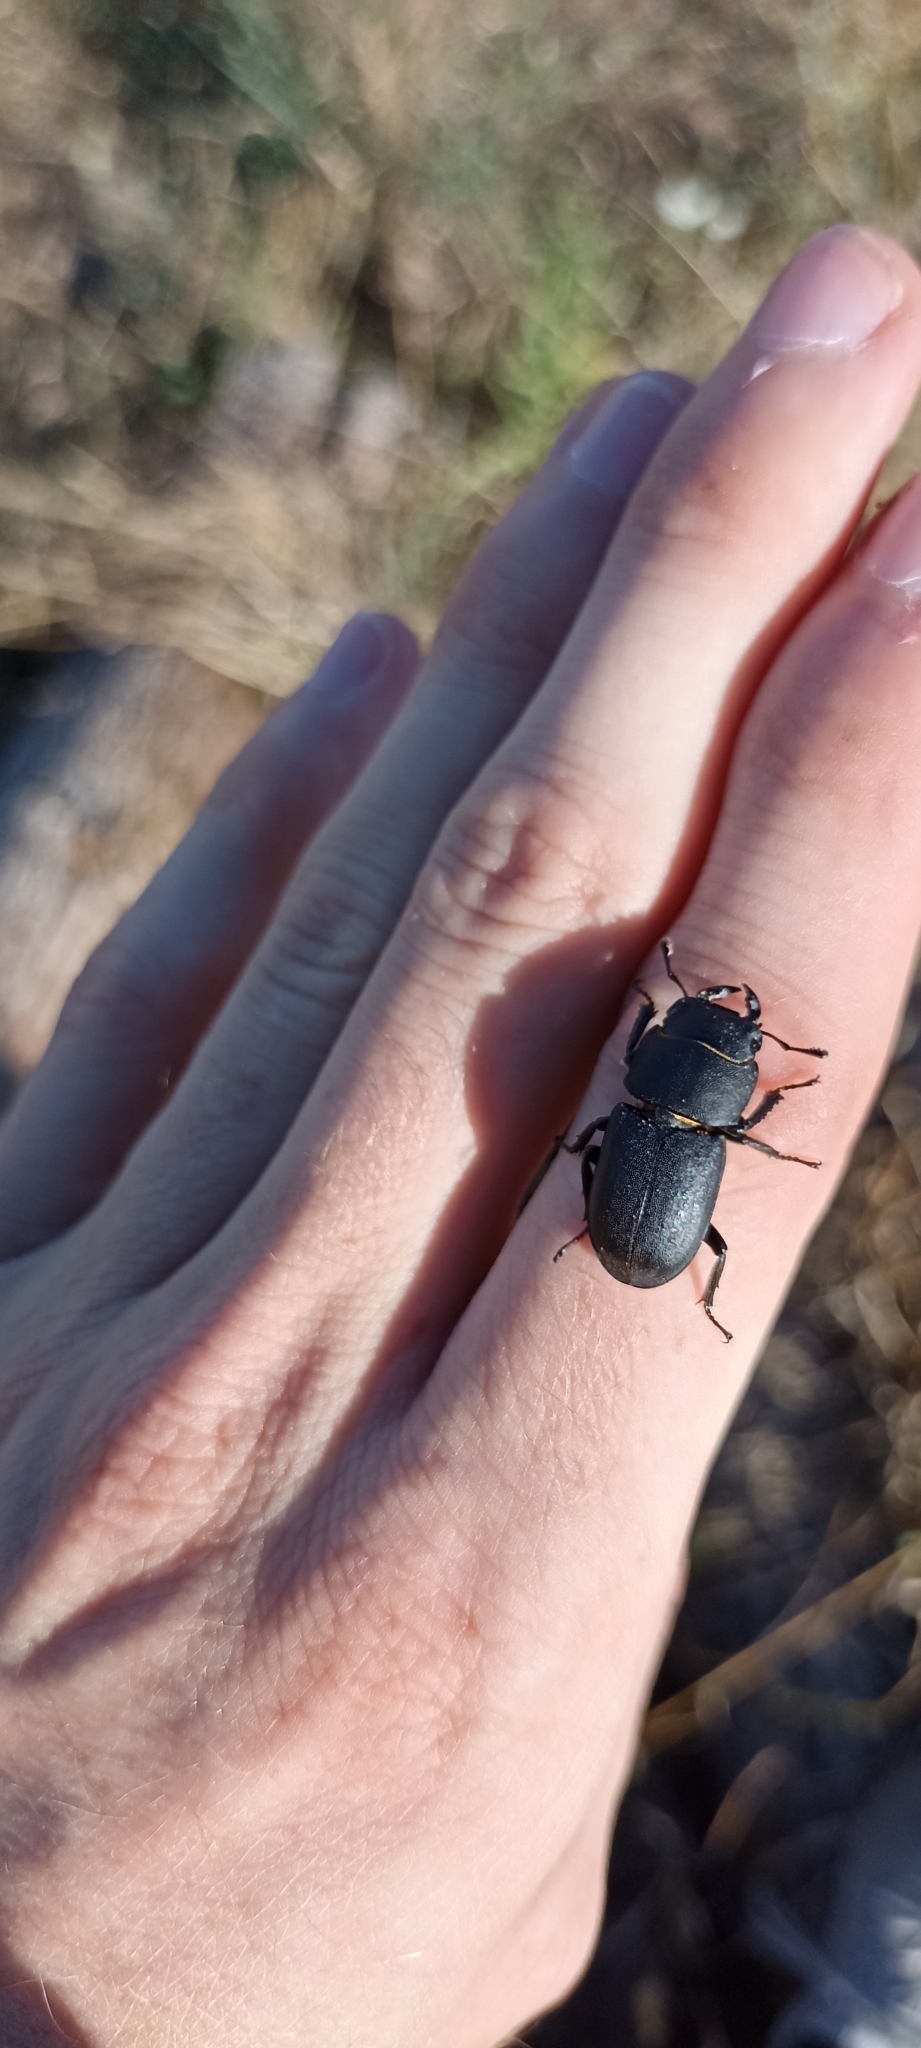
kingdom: Animalia
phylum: Arthropoda
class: Insecta
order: Coleoptera
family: Lucanidae
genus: Dorcus
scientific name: Dorcus parallelipipedus
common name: Lesser stag beetle
